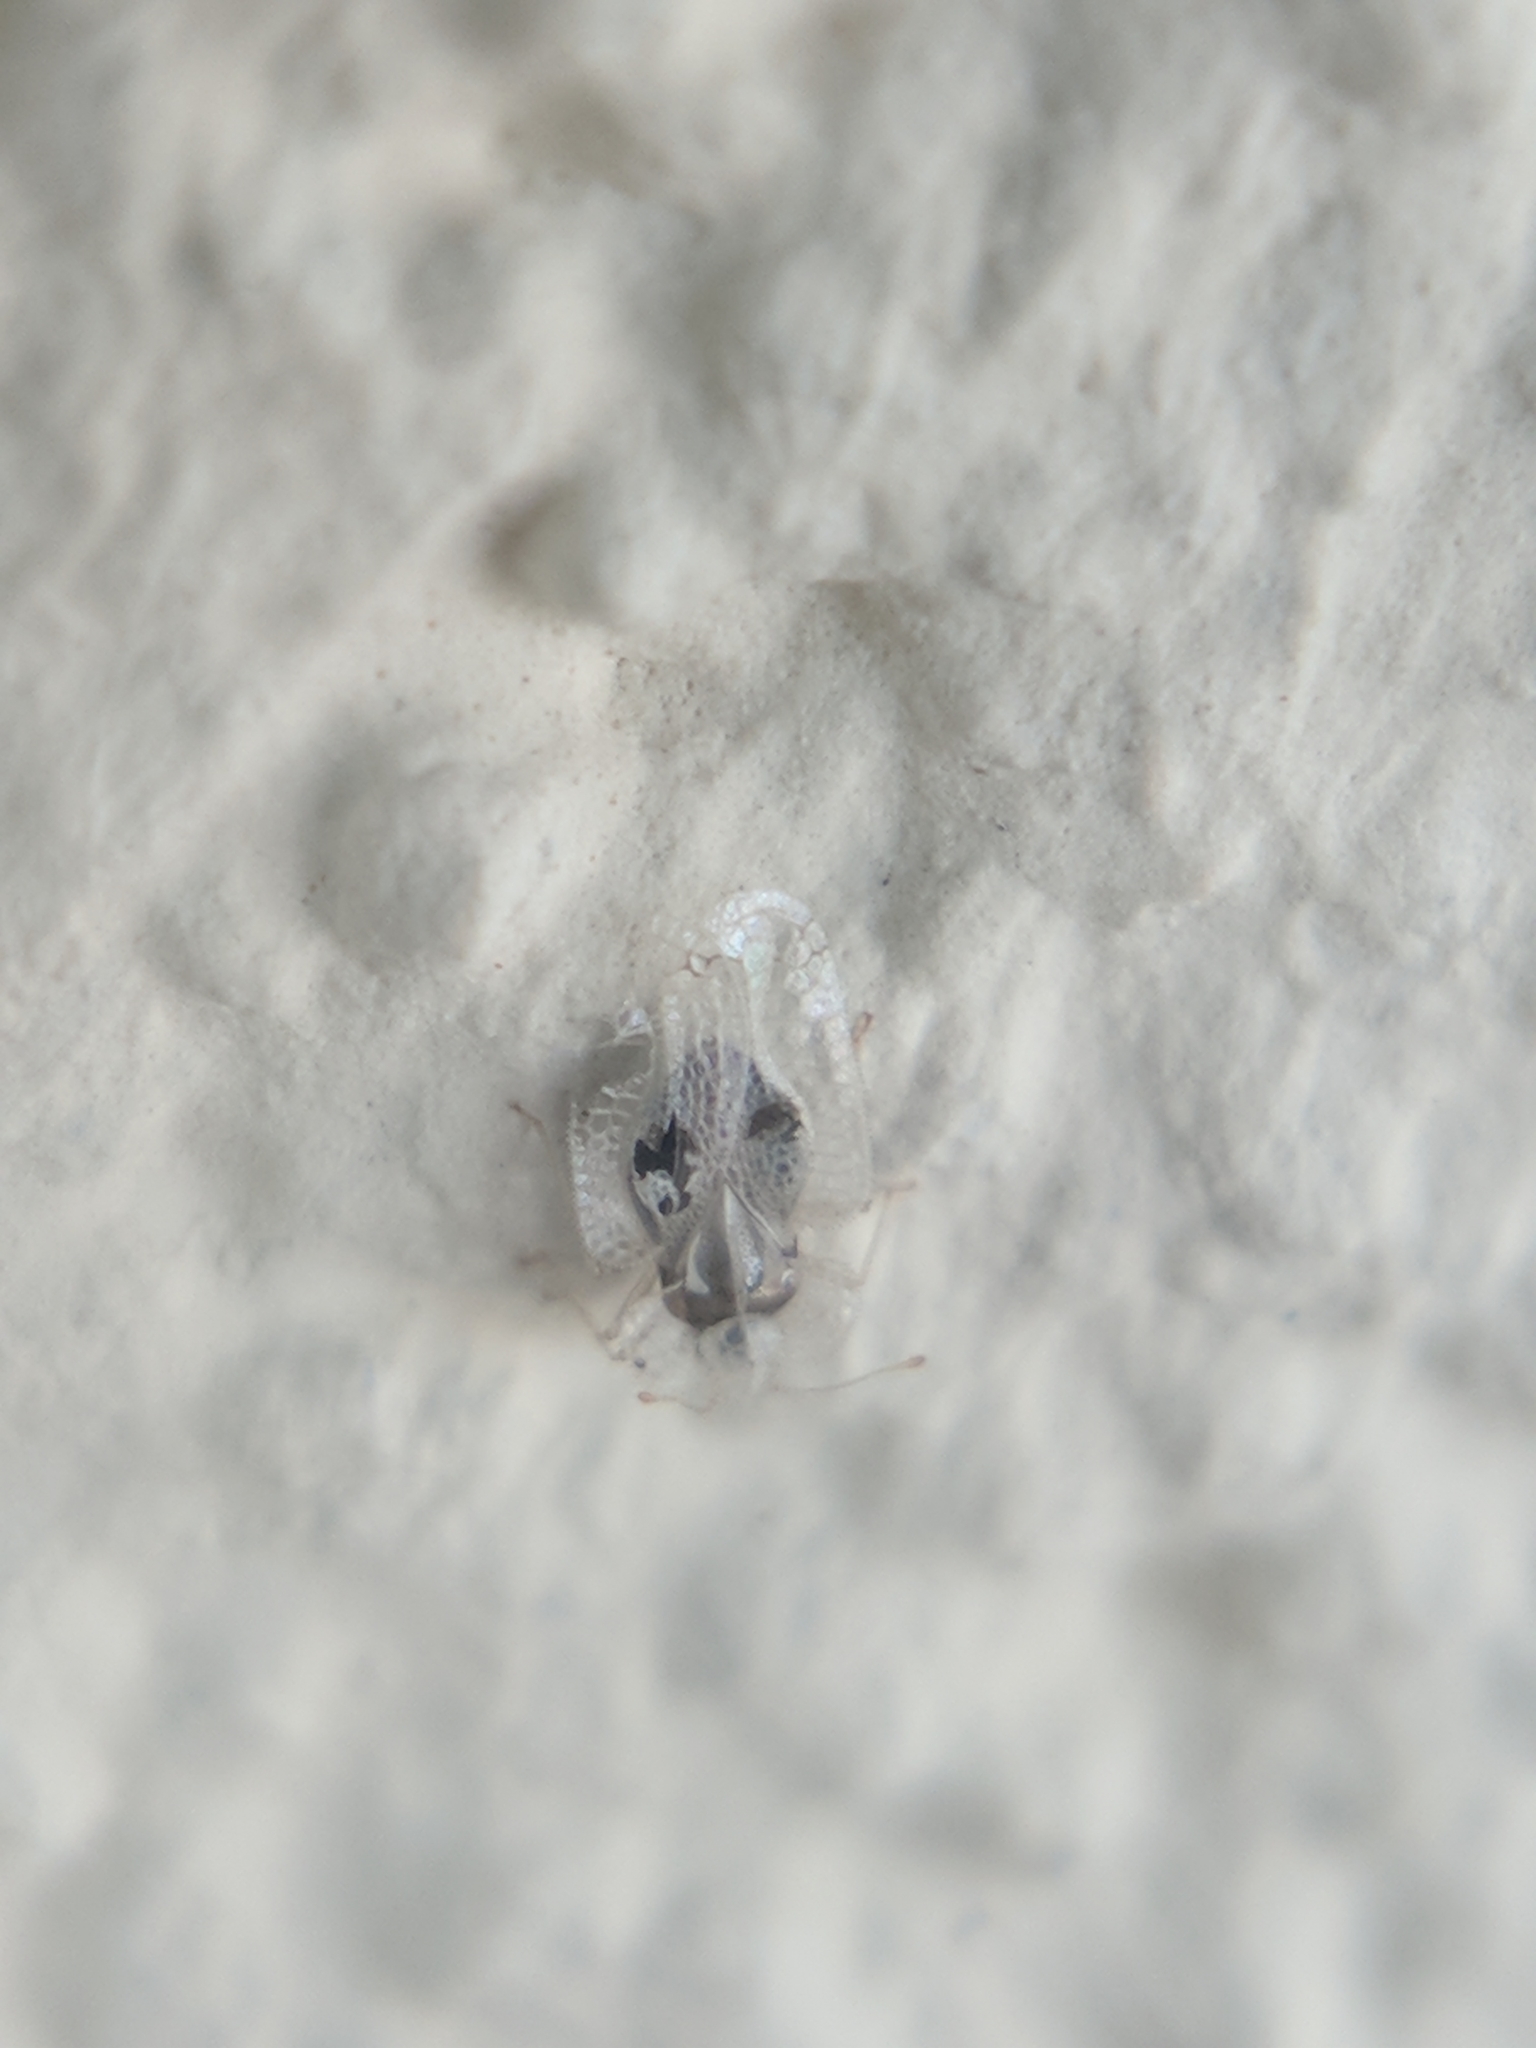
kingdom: Animalia
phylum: Arthropoda
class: Insecta
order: Hemiptera
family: Tingidae
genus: Corythucha
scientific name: Corythucha ciliata
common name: Sycamore lace bug
